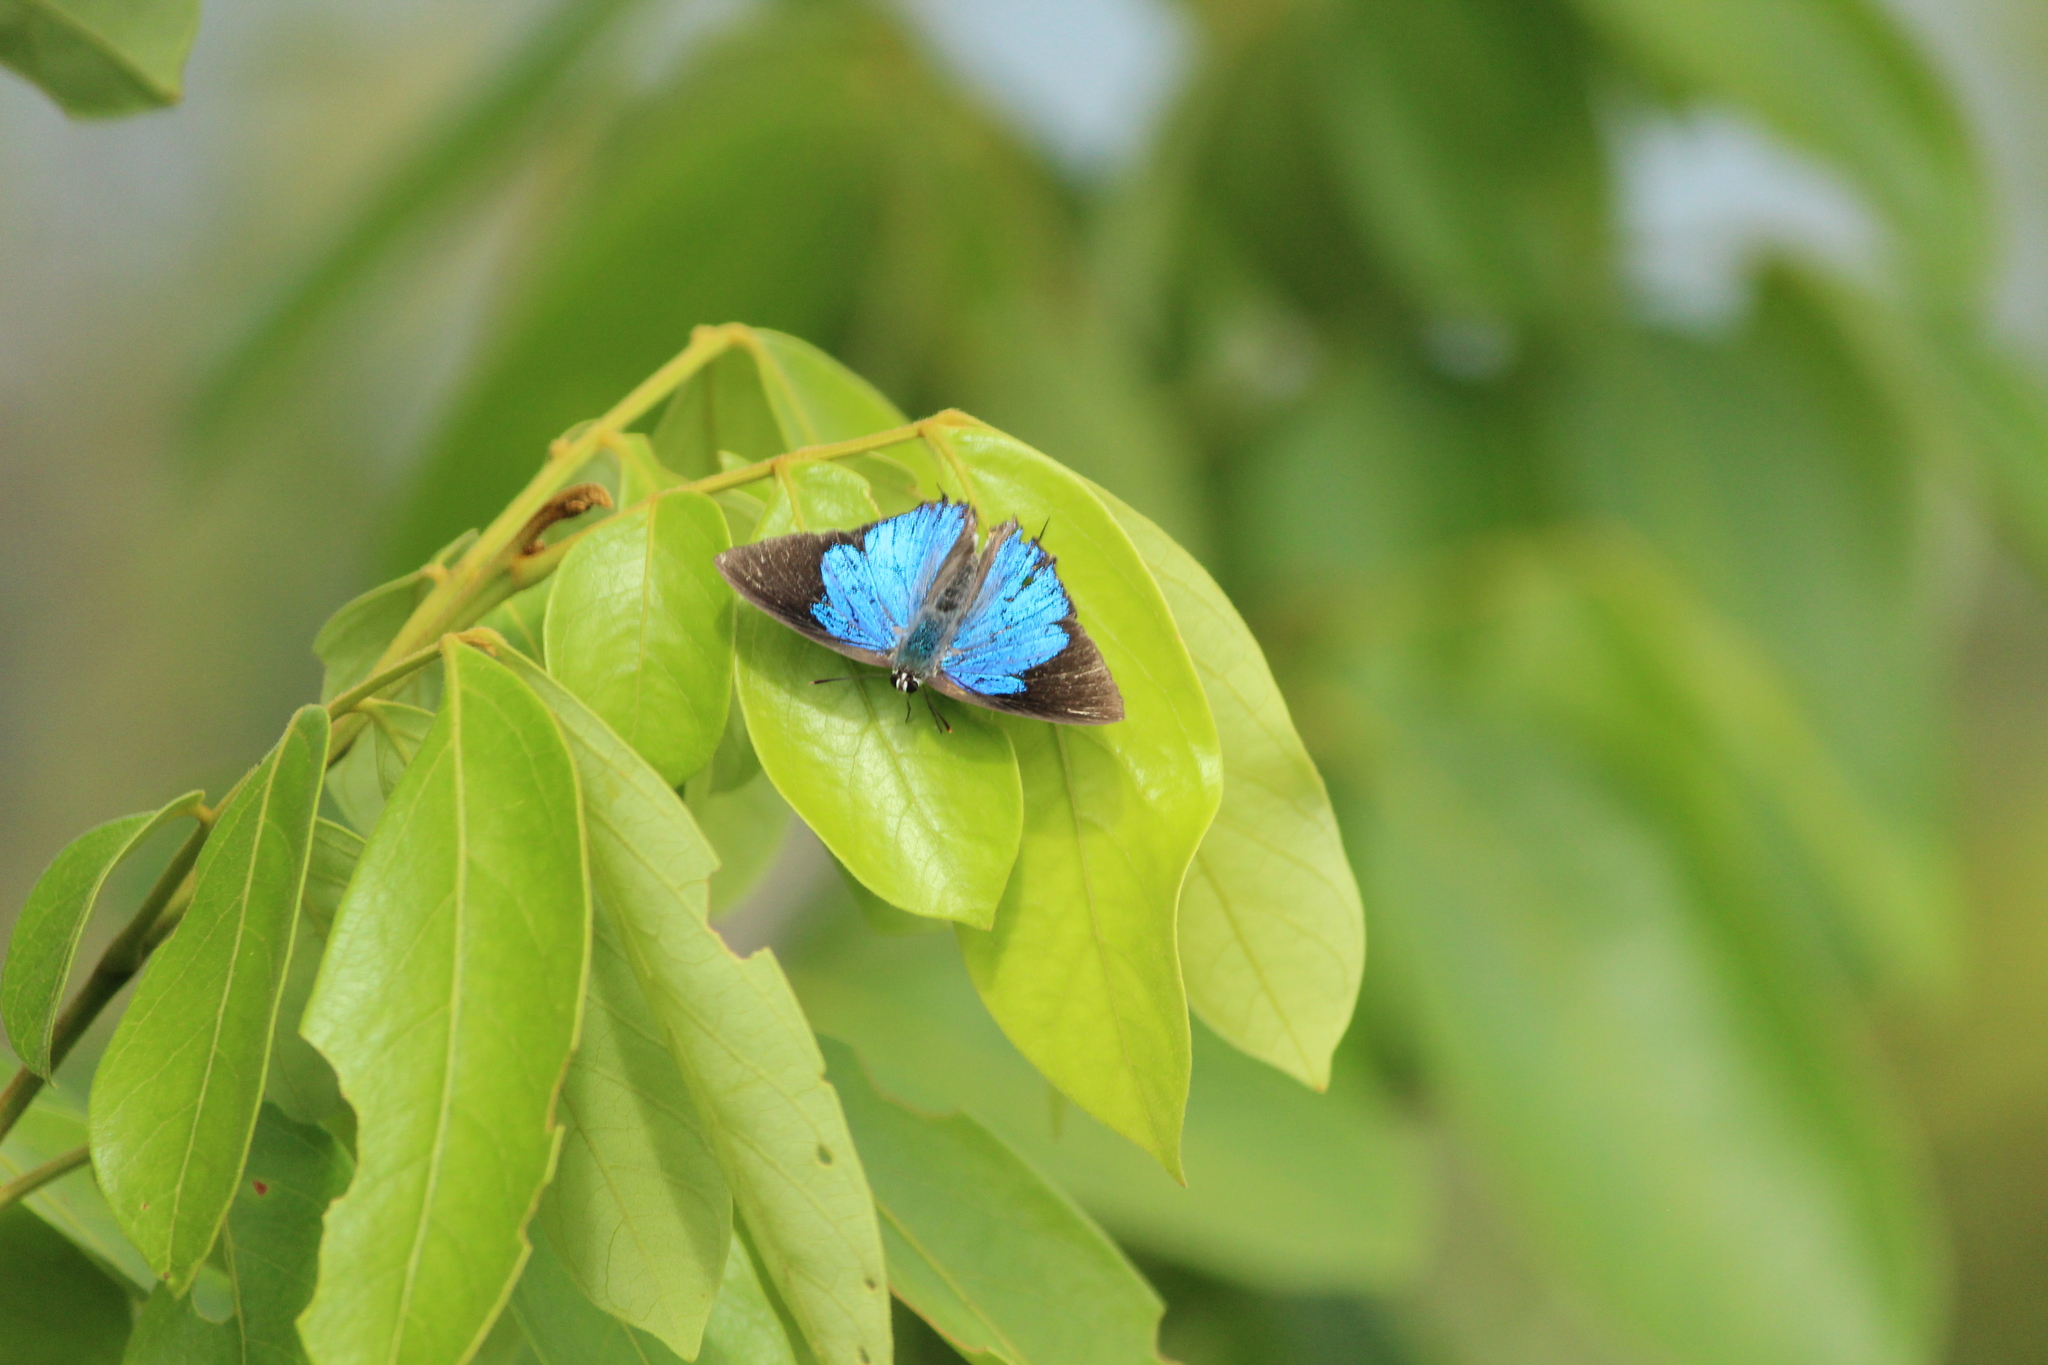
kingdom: Animalia
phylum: Arthropoda
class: Insecta
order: Lepidoptera
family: Lycaenidae
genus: Tajuria
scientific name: Tajuria cippus
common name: Peacock royal
